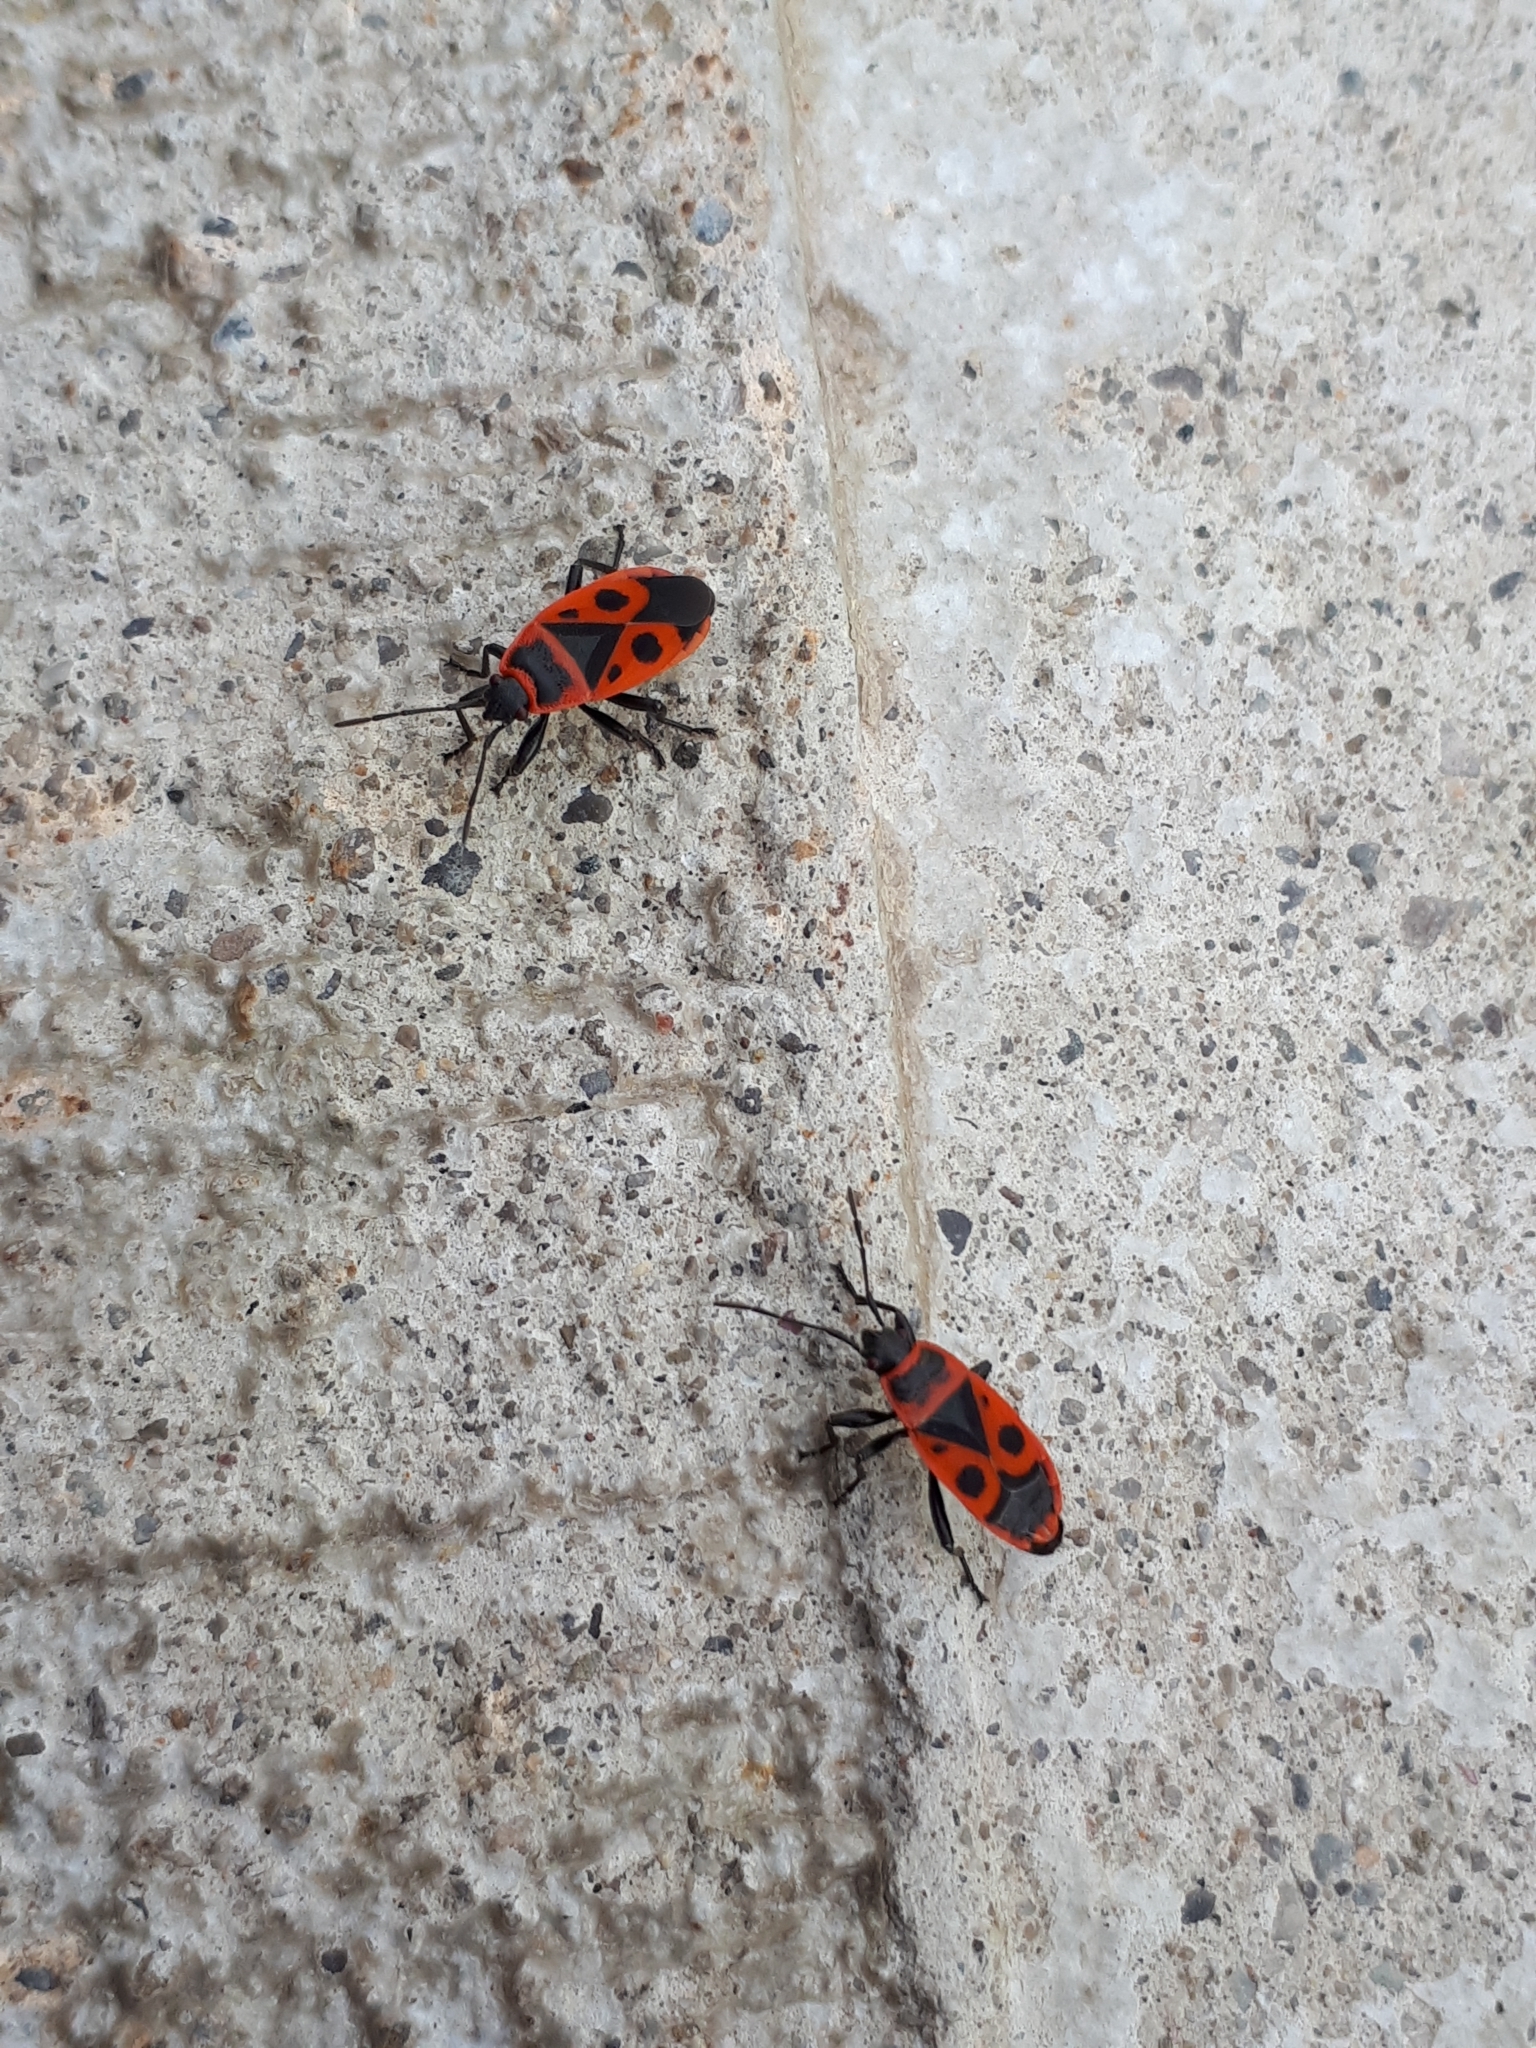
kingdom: Animalia
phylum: Arthropoda
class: Insecta
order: Hemiptera
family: Pyrrhocoridae
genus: Pyrrhocoris
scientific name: Pyrrhocoris apterus
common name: Firebug
